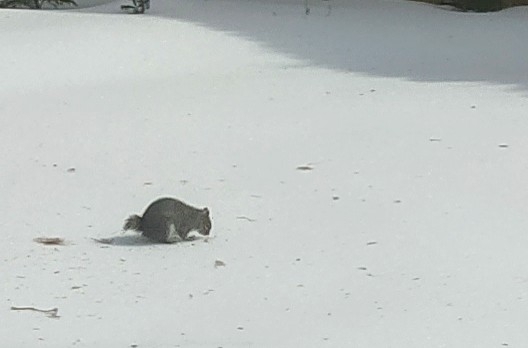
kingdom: Animalia
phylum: Chordata
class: Mammalia
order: Rodentia
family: Sciuridae
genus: Sciurus
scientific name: Sciurus carolinensis
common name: Eastern gray squirrel
